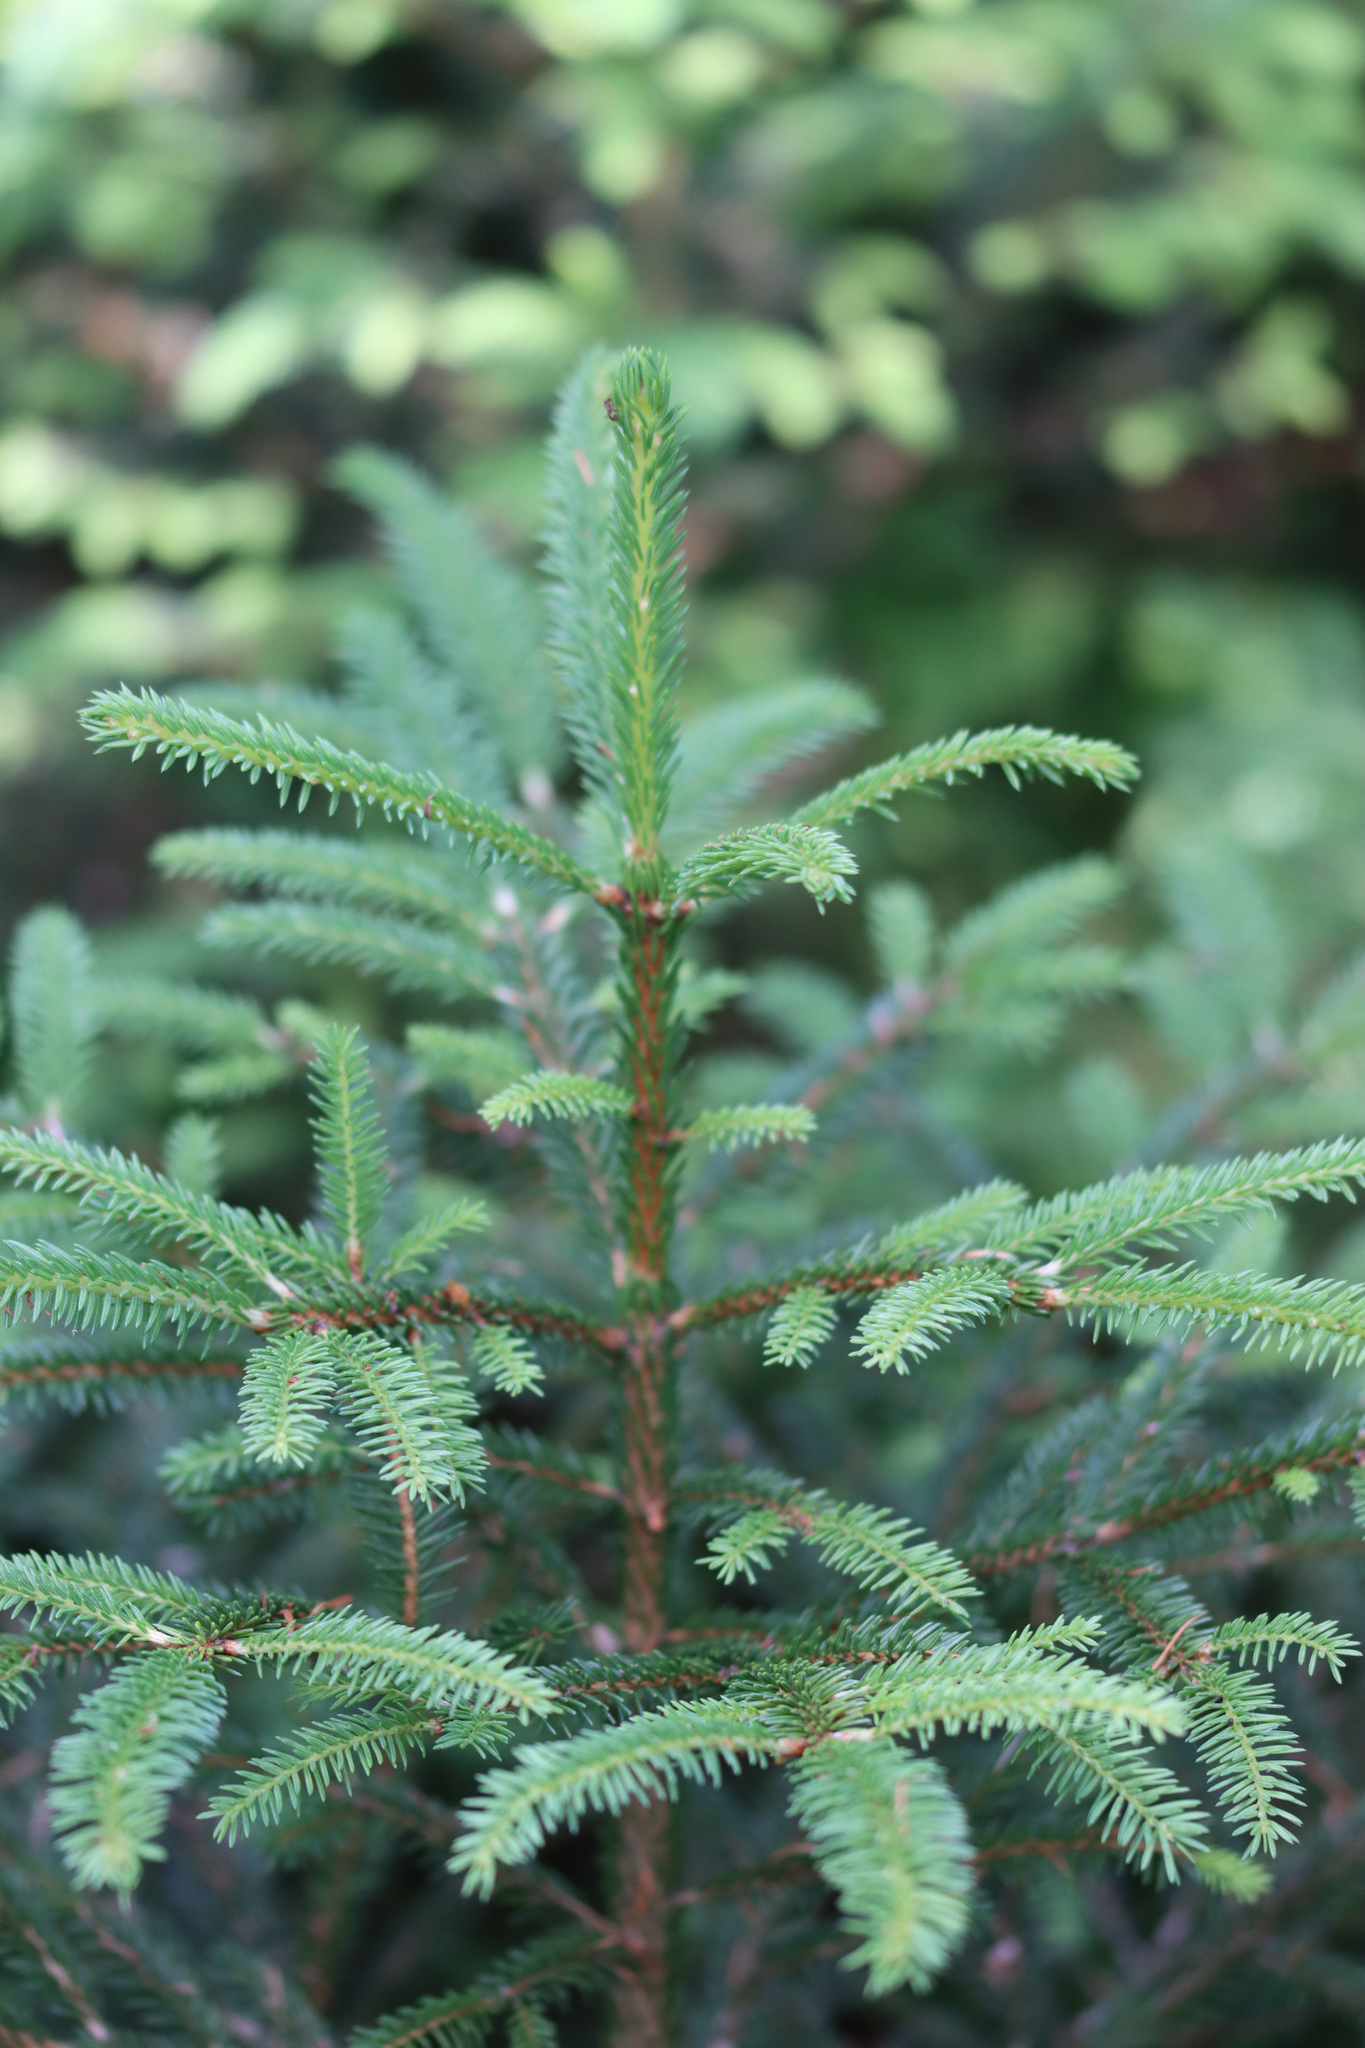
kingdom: Plantae
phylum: Tracheophyta
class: Pinopsida
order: Pinales
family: Pinaceae
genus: Picea
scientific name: Picea abies
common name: Norway spruce
